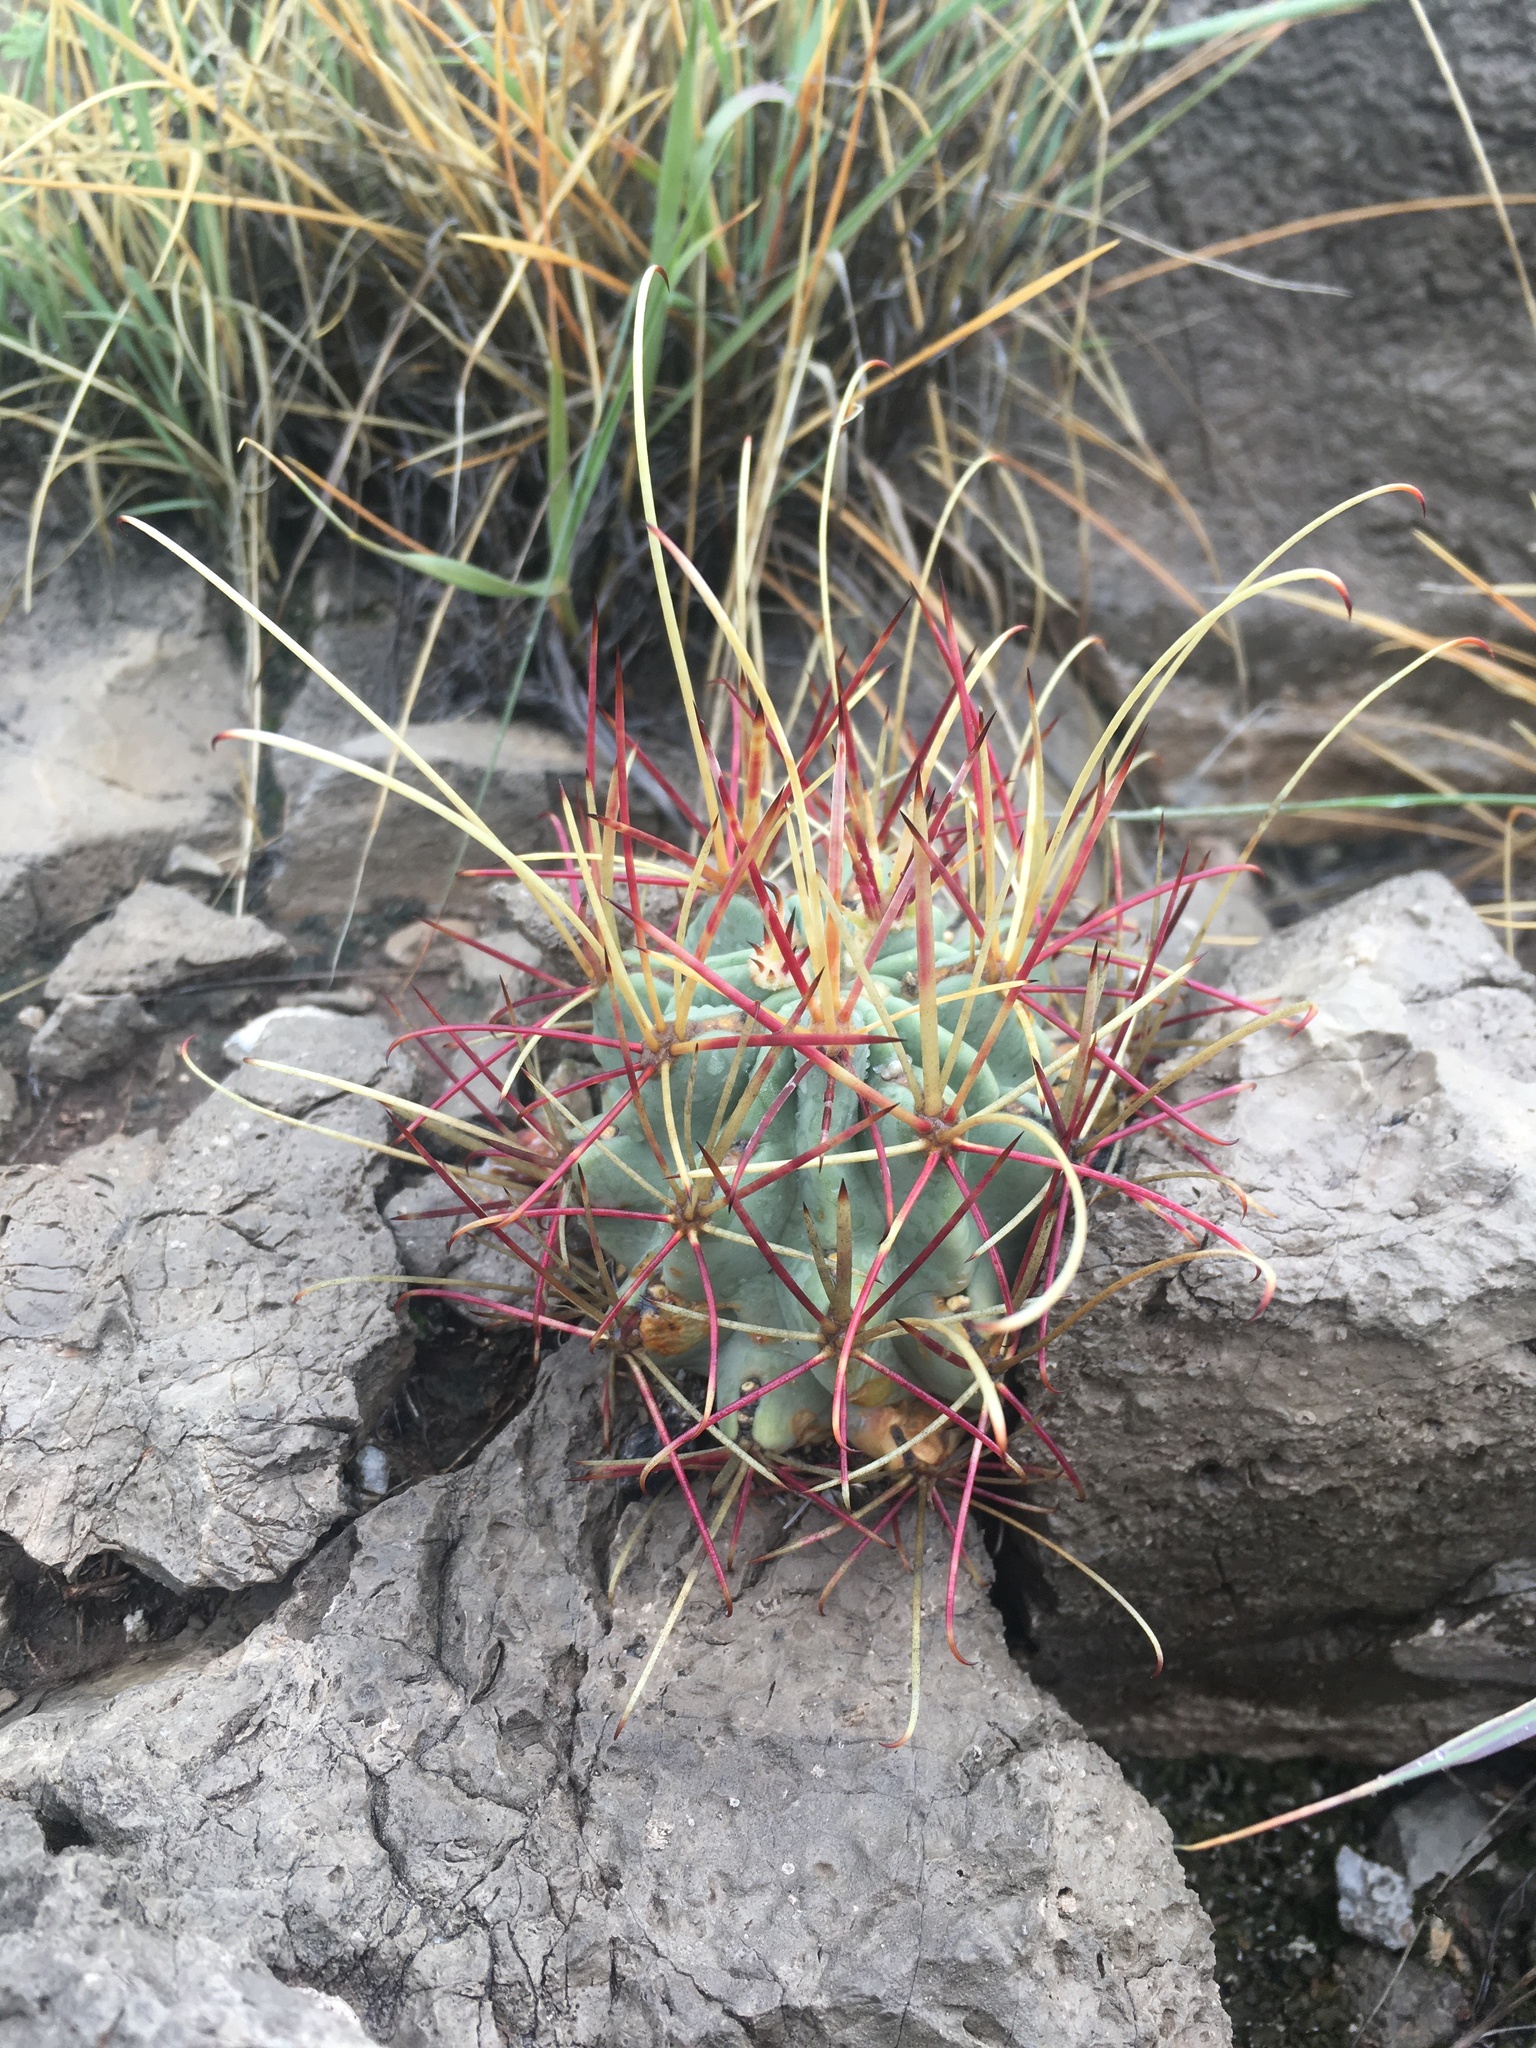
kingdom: Plantae
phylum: Tracheophyta
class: Magnoliopsida
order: Caryophyllales
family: Cactaceae
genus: Ferocactus
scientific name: Ferocactus uncinatus
